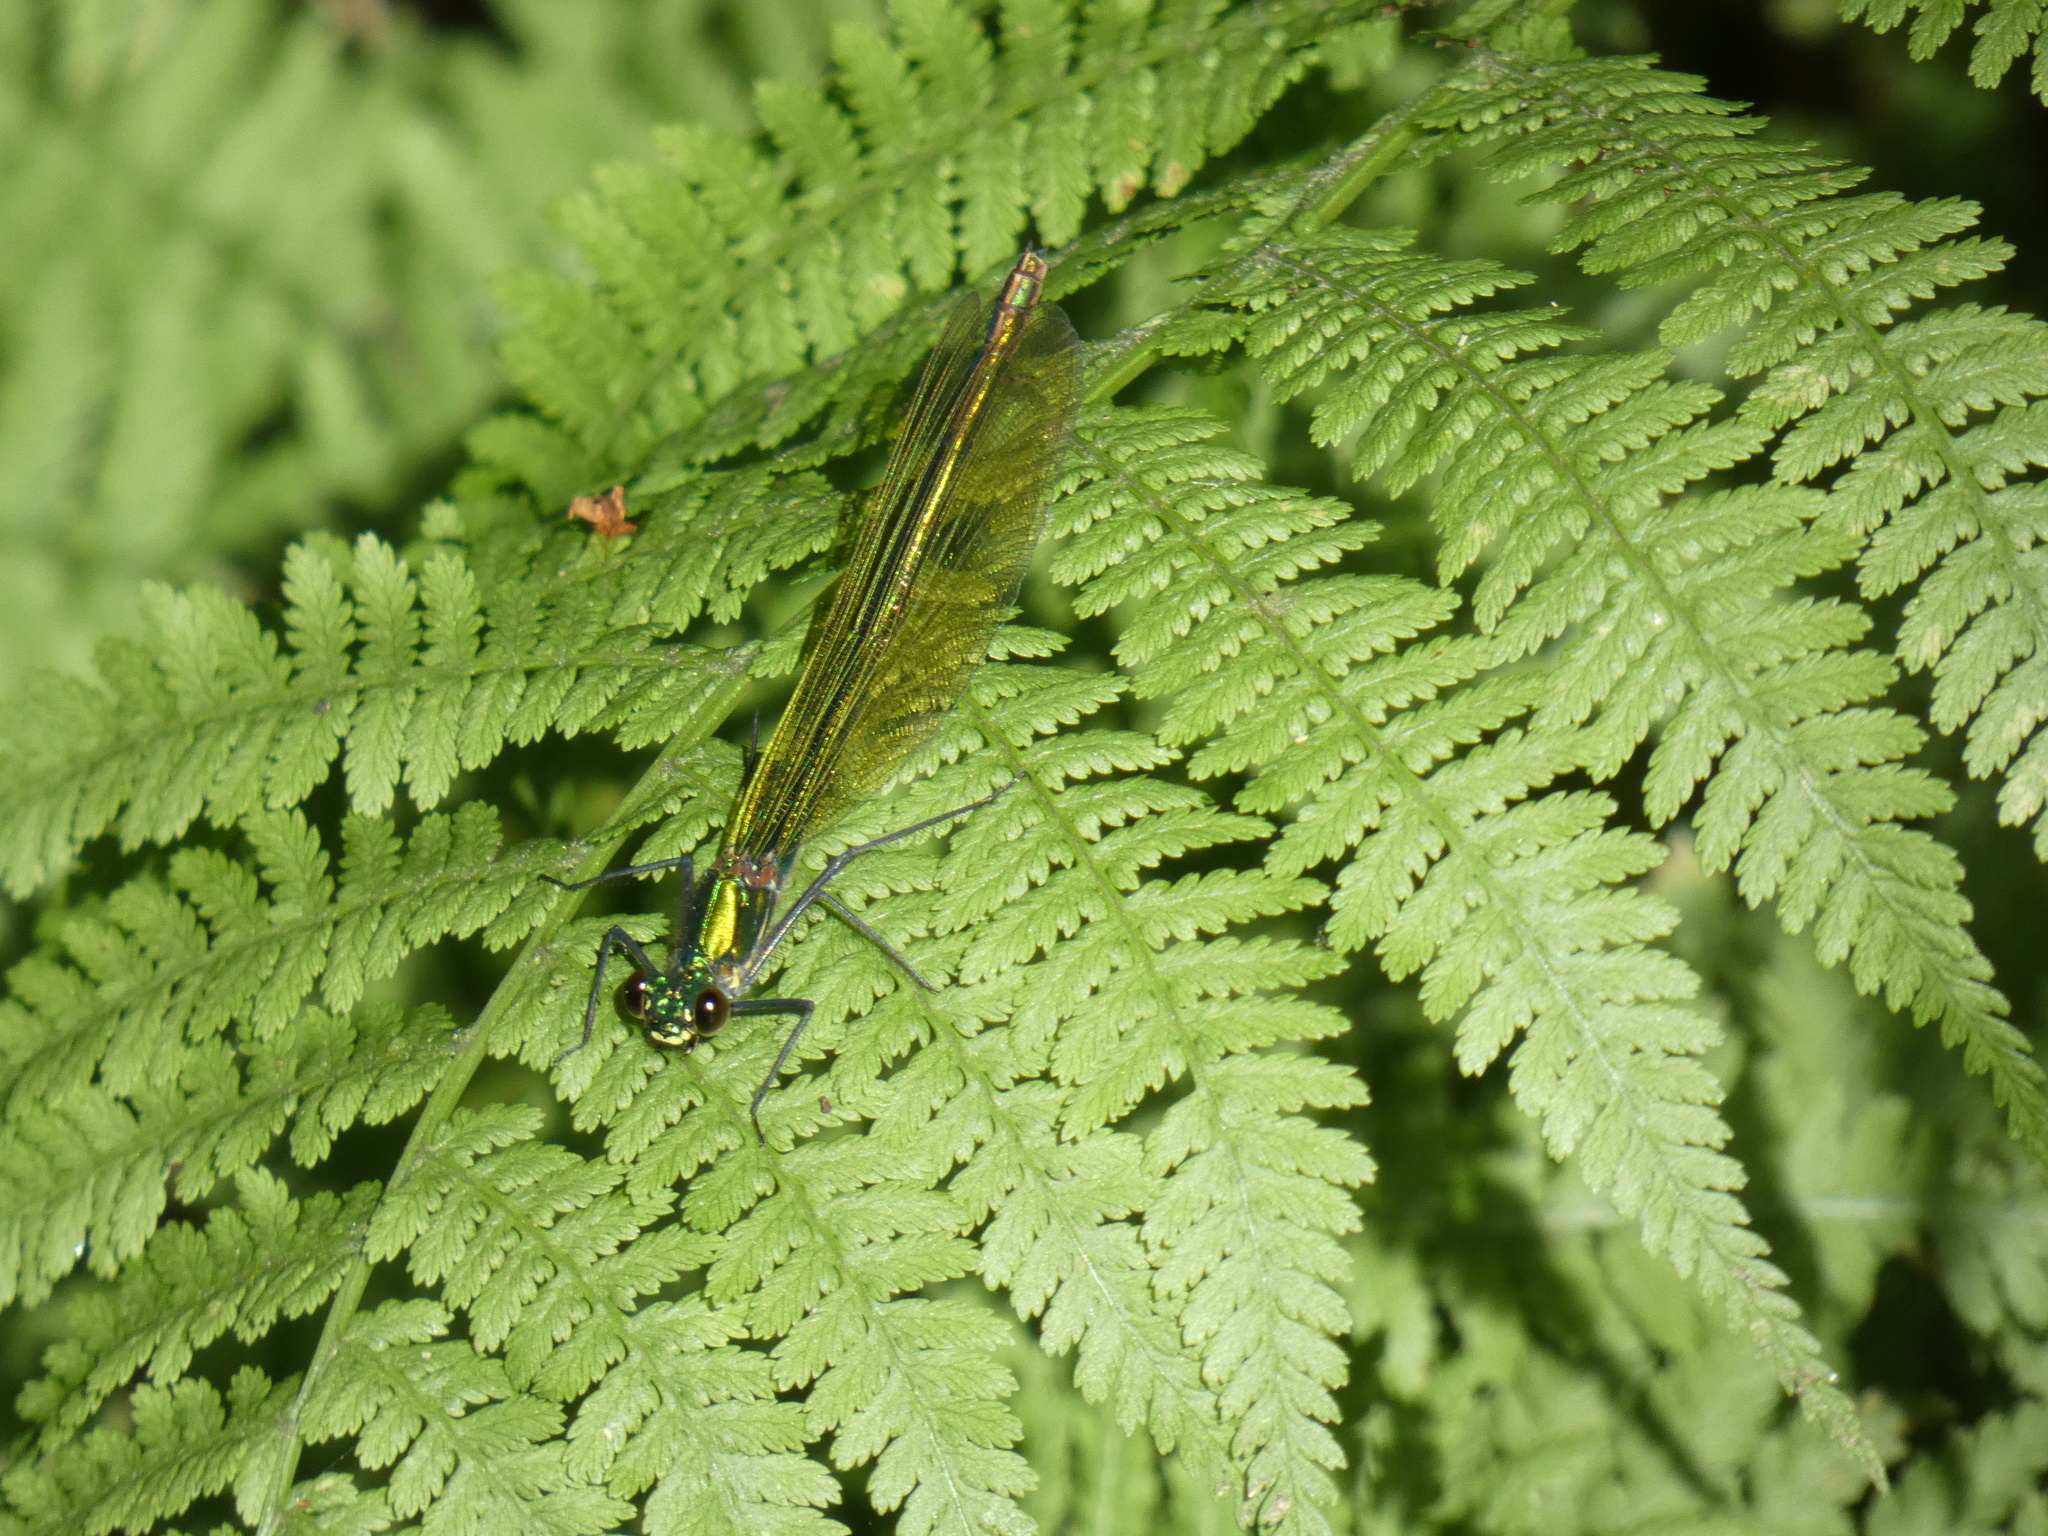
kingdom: Animalia
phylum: Arthropoda
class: Insecta
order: Odonata
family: Calopterygidae
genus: Calopteryx
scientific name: Calopteryx splendens
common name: Banded demoiselle
